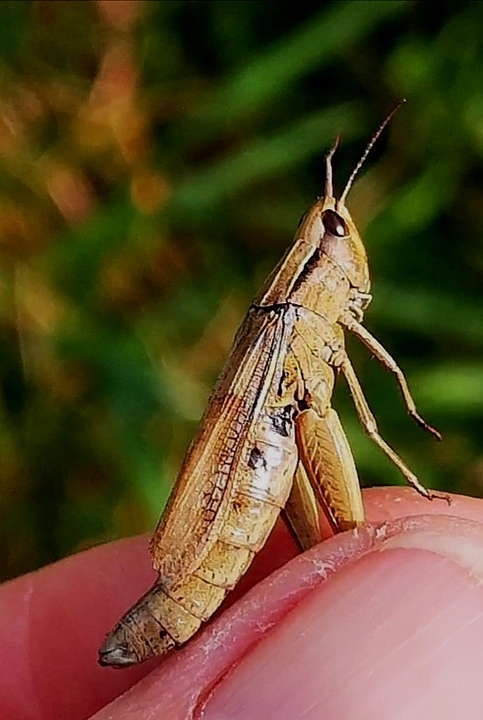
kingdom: Animalia
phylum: Arthropoda
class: Insecta
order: Orthoptera
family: Acrididae
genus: Chorthippus
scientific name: Chorthippus albomarginatus
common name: Lesser marsh grasshopper
